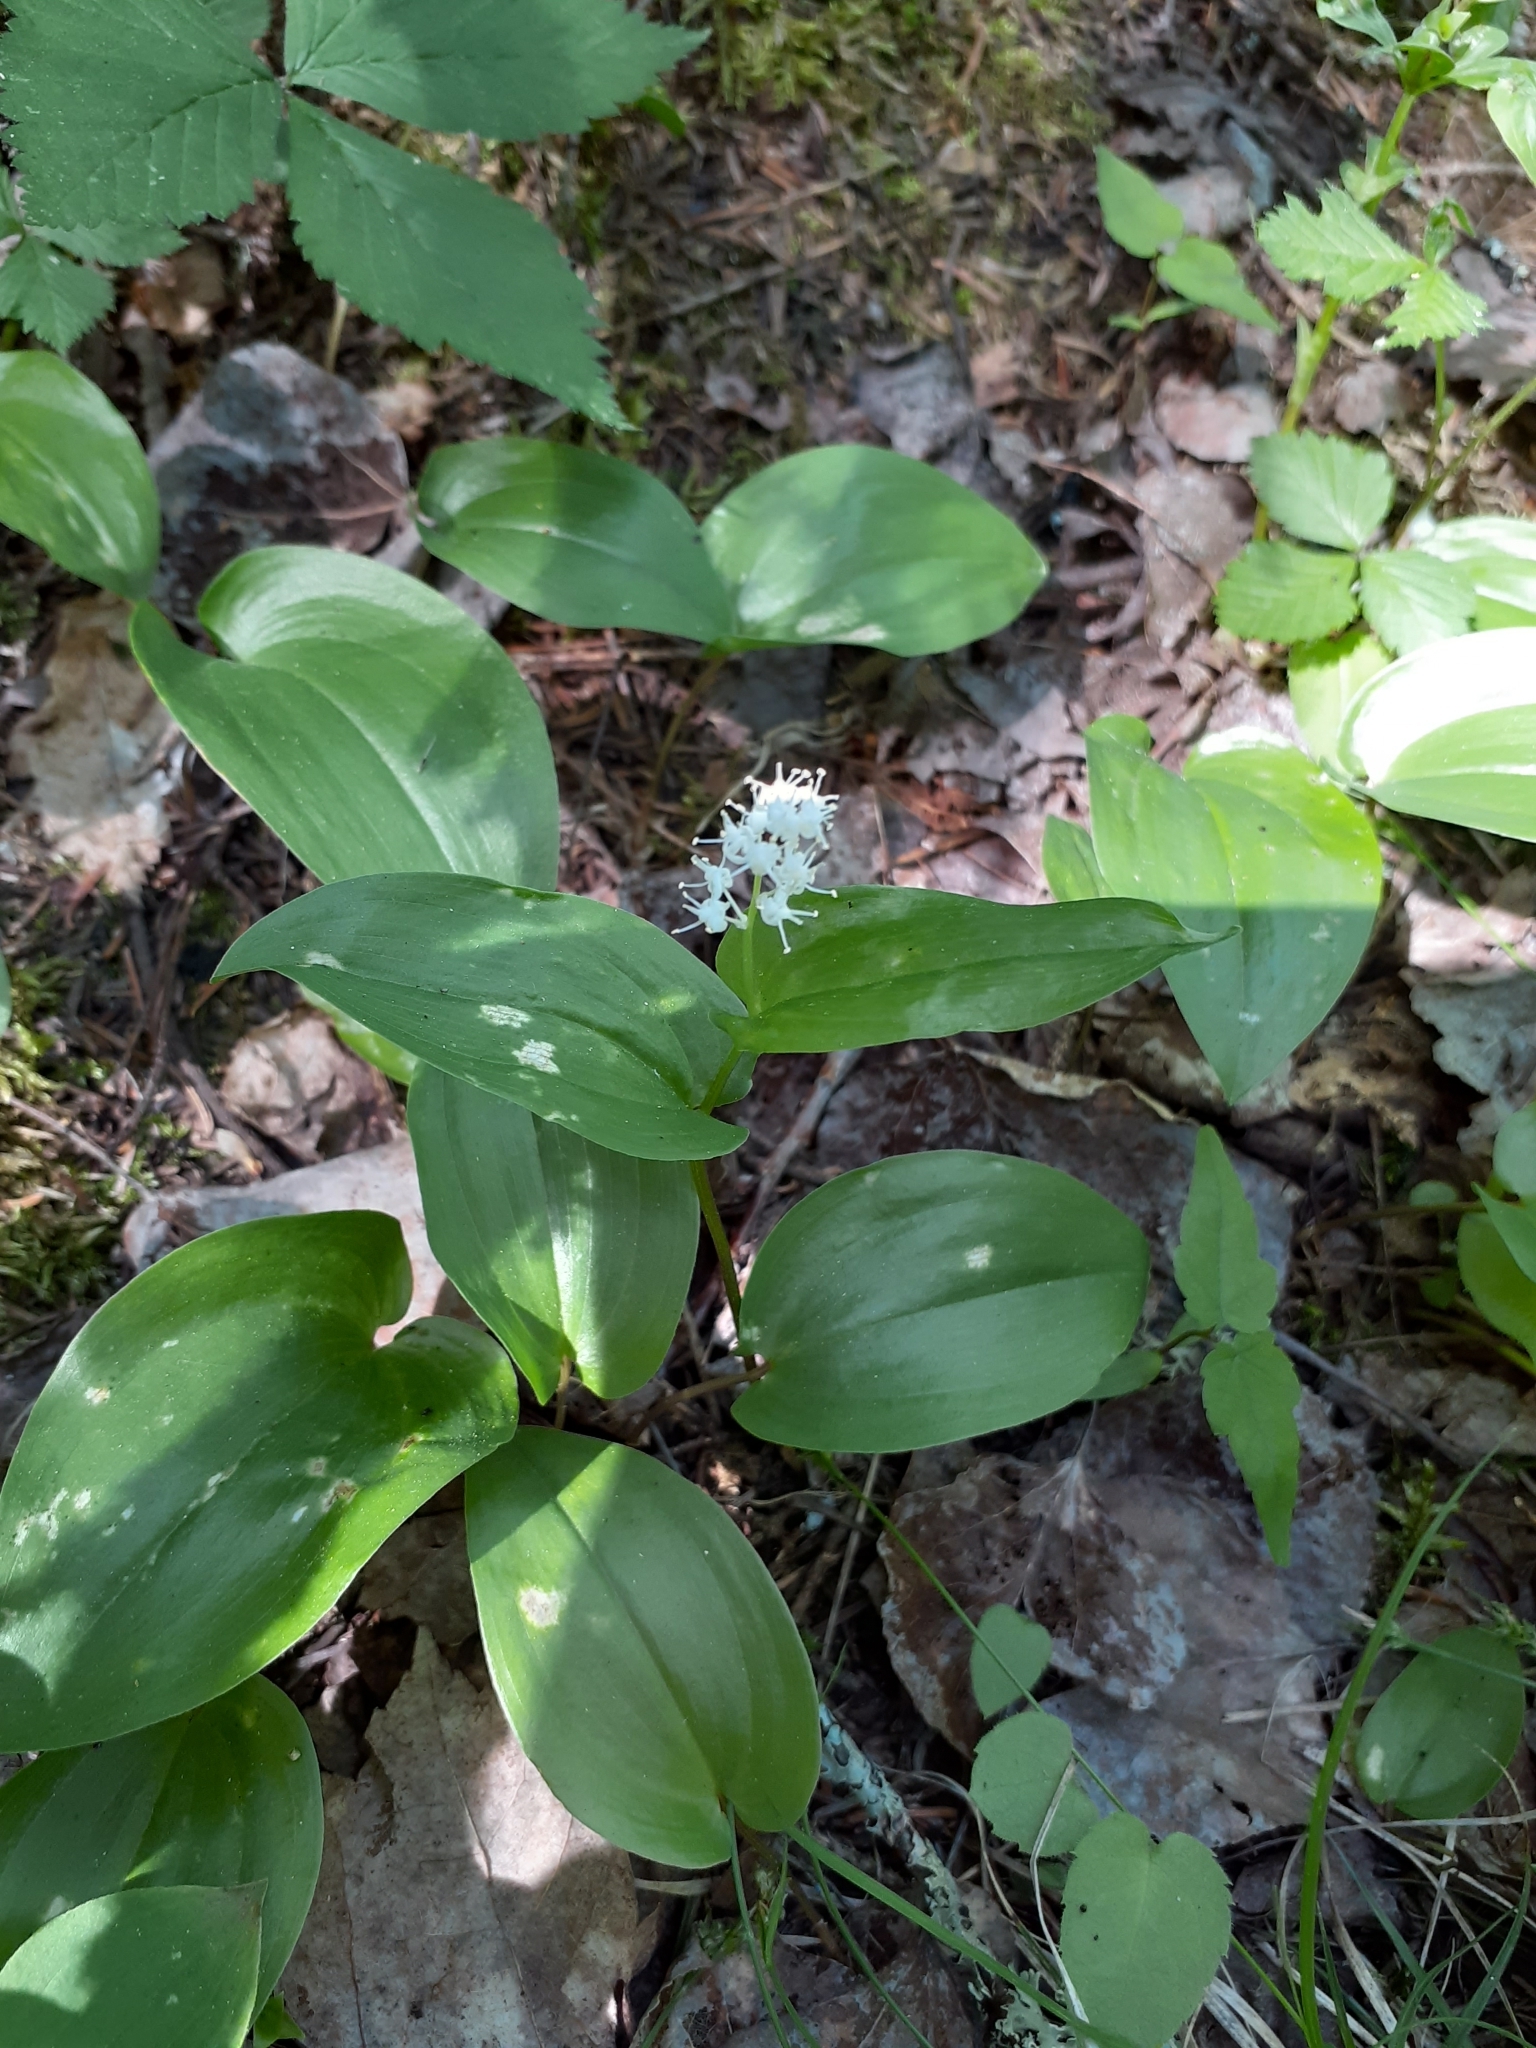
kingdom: Plantae
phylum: Tracheophyta
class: Liliopsida
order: Asparagales
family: Asparagaceae
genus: Maianthemum
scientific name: Maianthemum canadense
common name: False lily-of-the-valley
